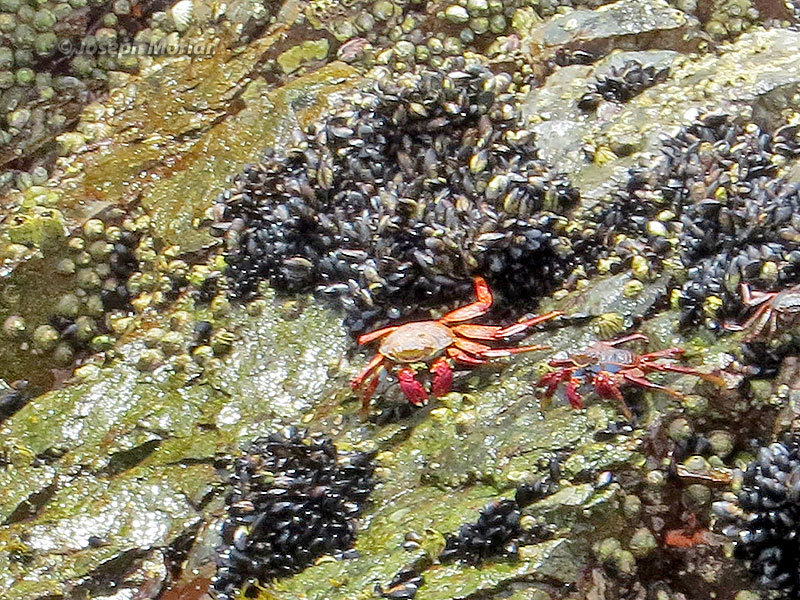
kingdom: Animalia
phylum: Arthropoda
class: Malacostraca
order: Decapoda
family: Grapsidae
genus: Grapsus
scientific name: Grapsus grapsus
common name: Sally lightfoot
